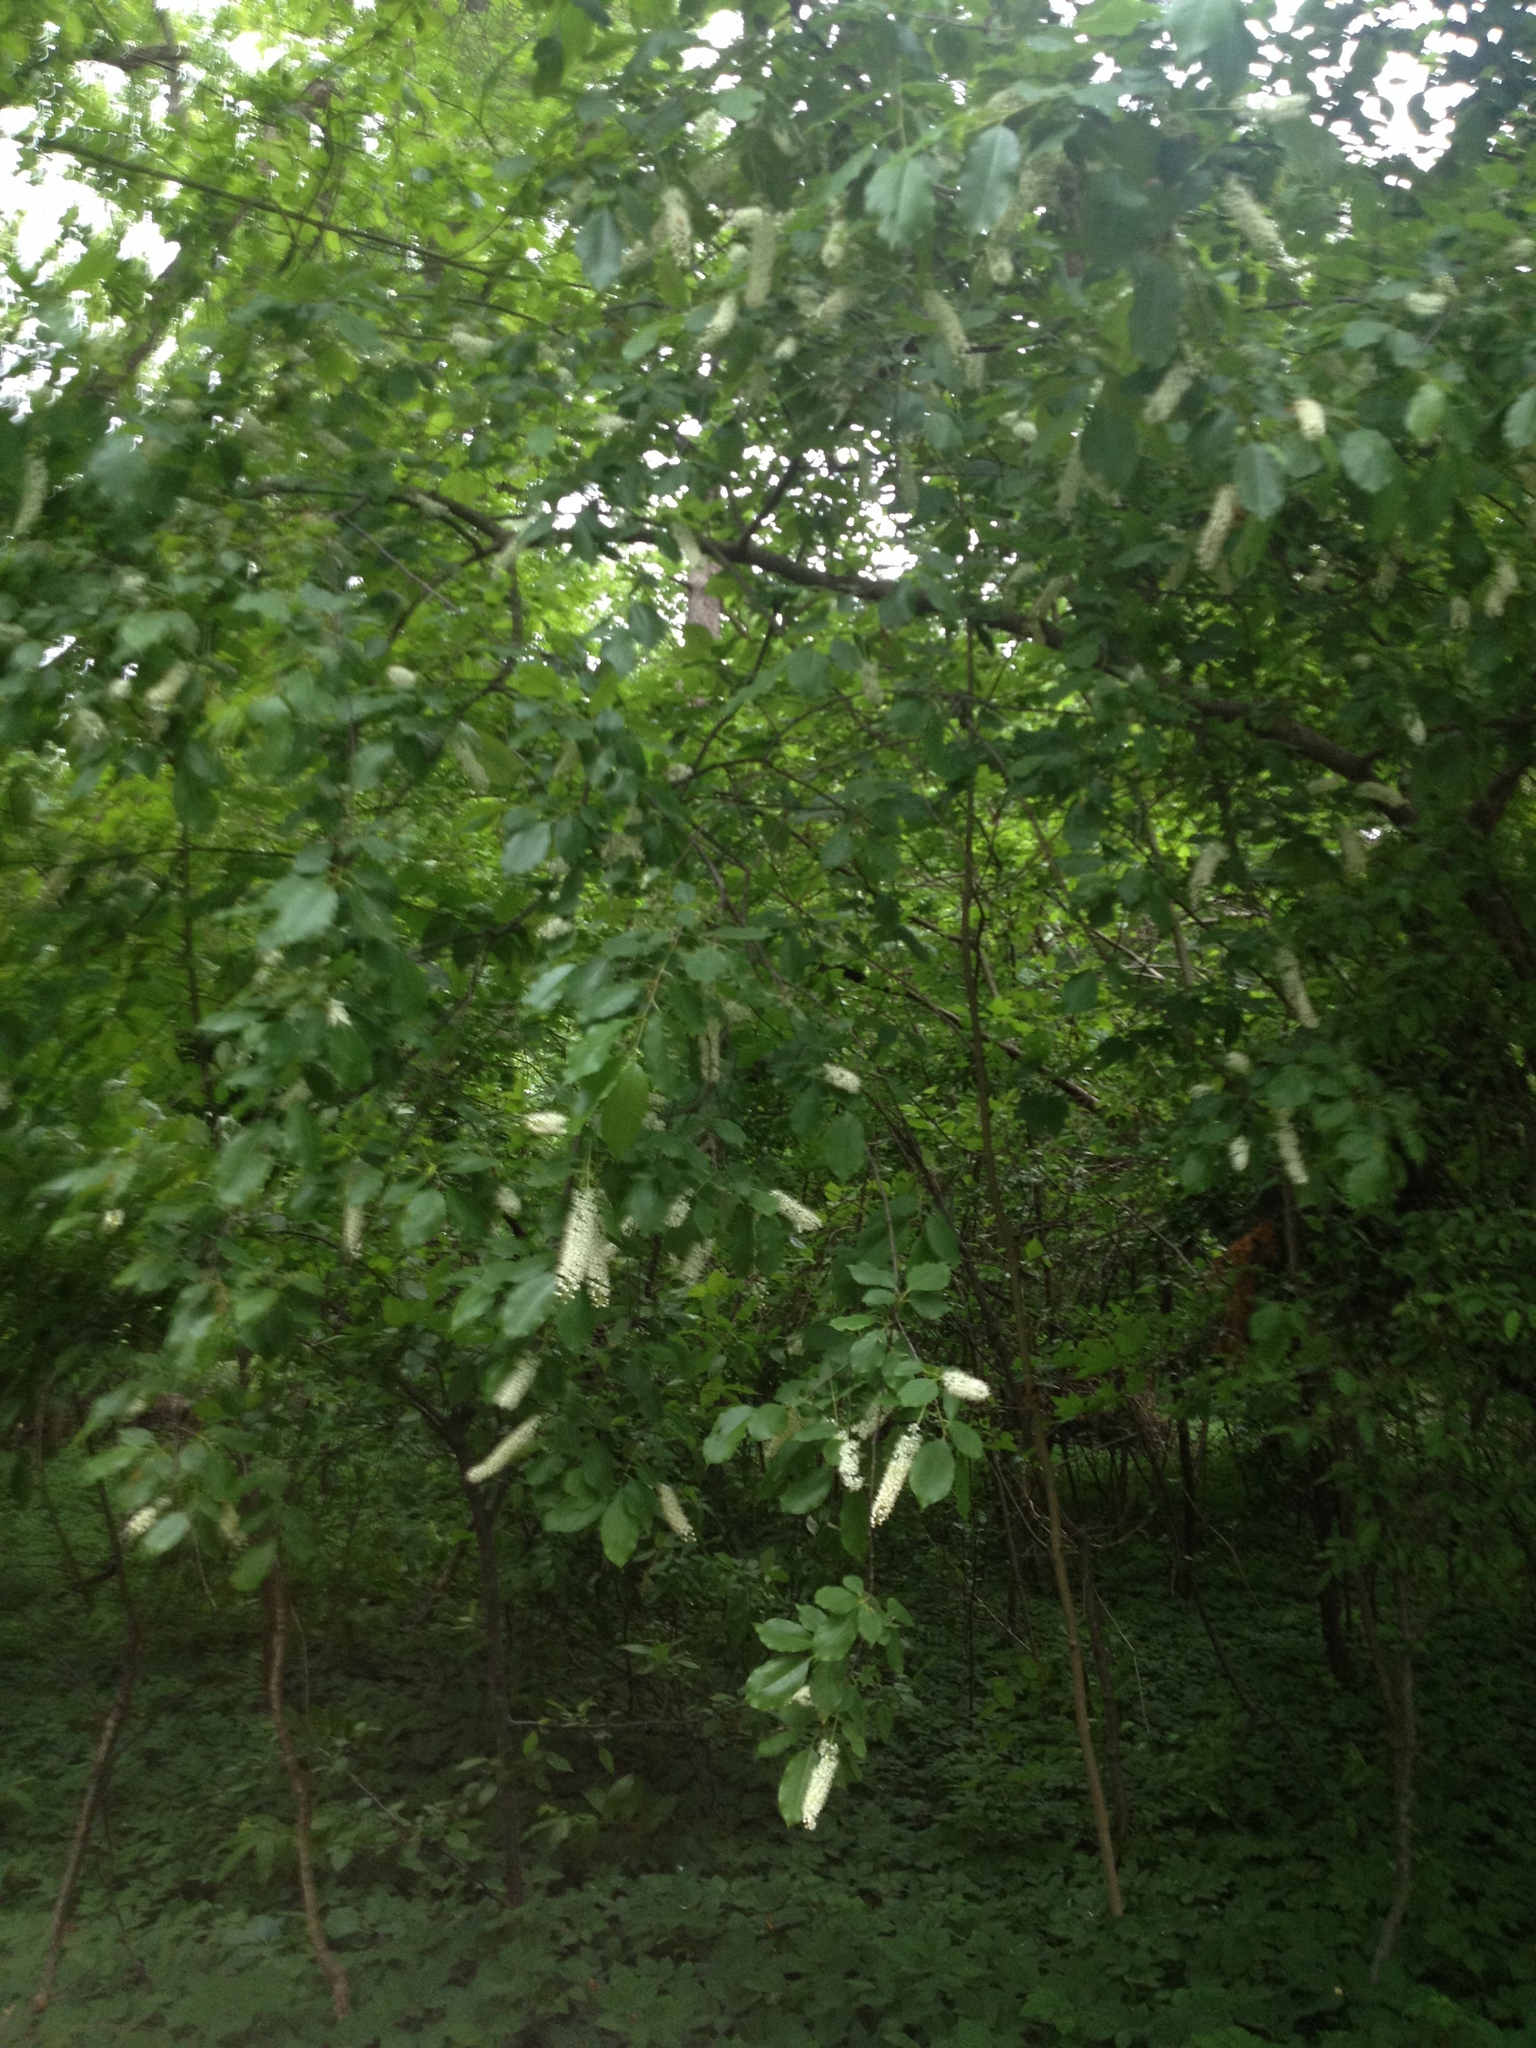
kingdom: Plantae
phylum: Tracheophyta
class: Magnoliopsida
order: Rosales
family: Rosaceae
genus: Prunus
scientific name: Prunus serotina
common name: Black cherry
